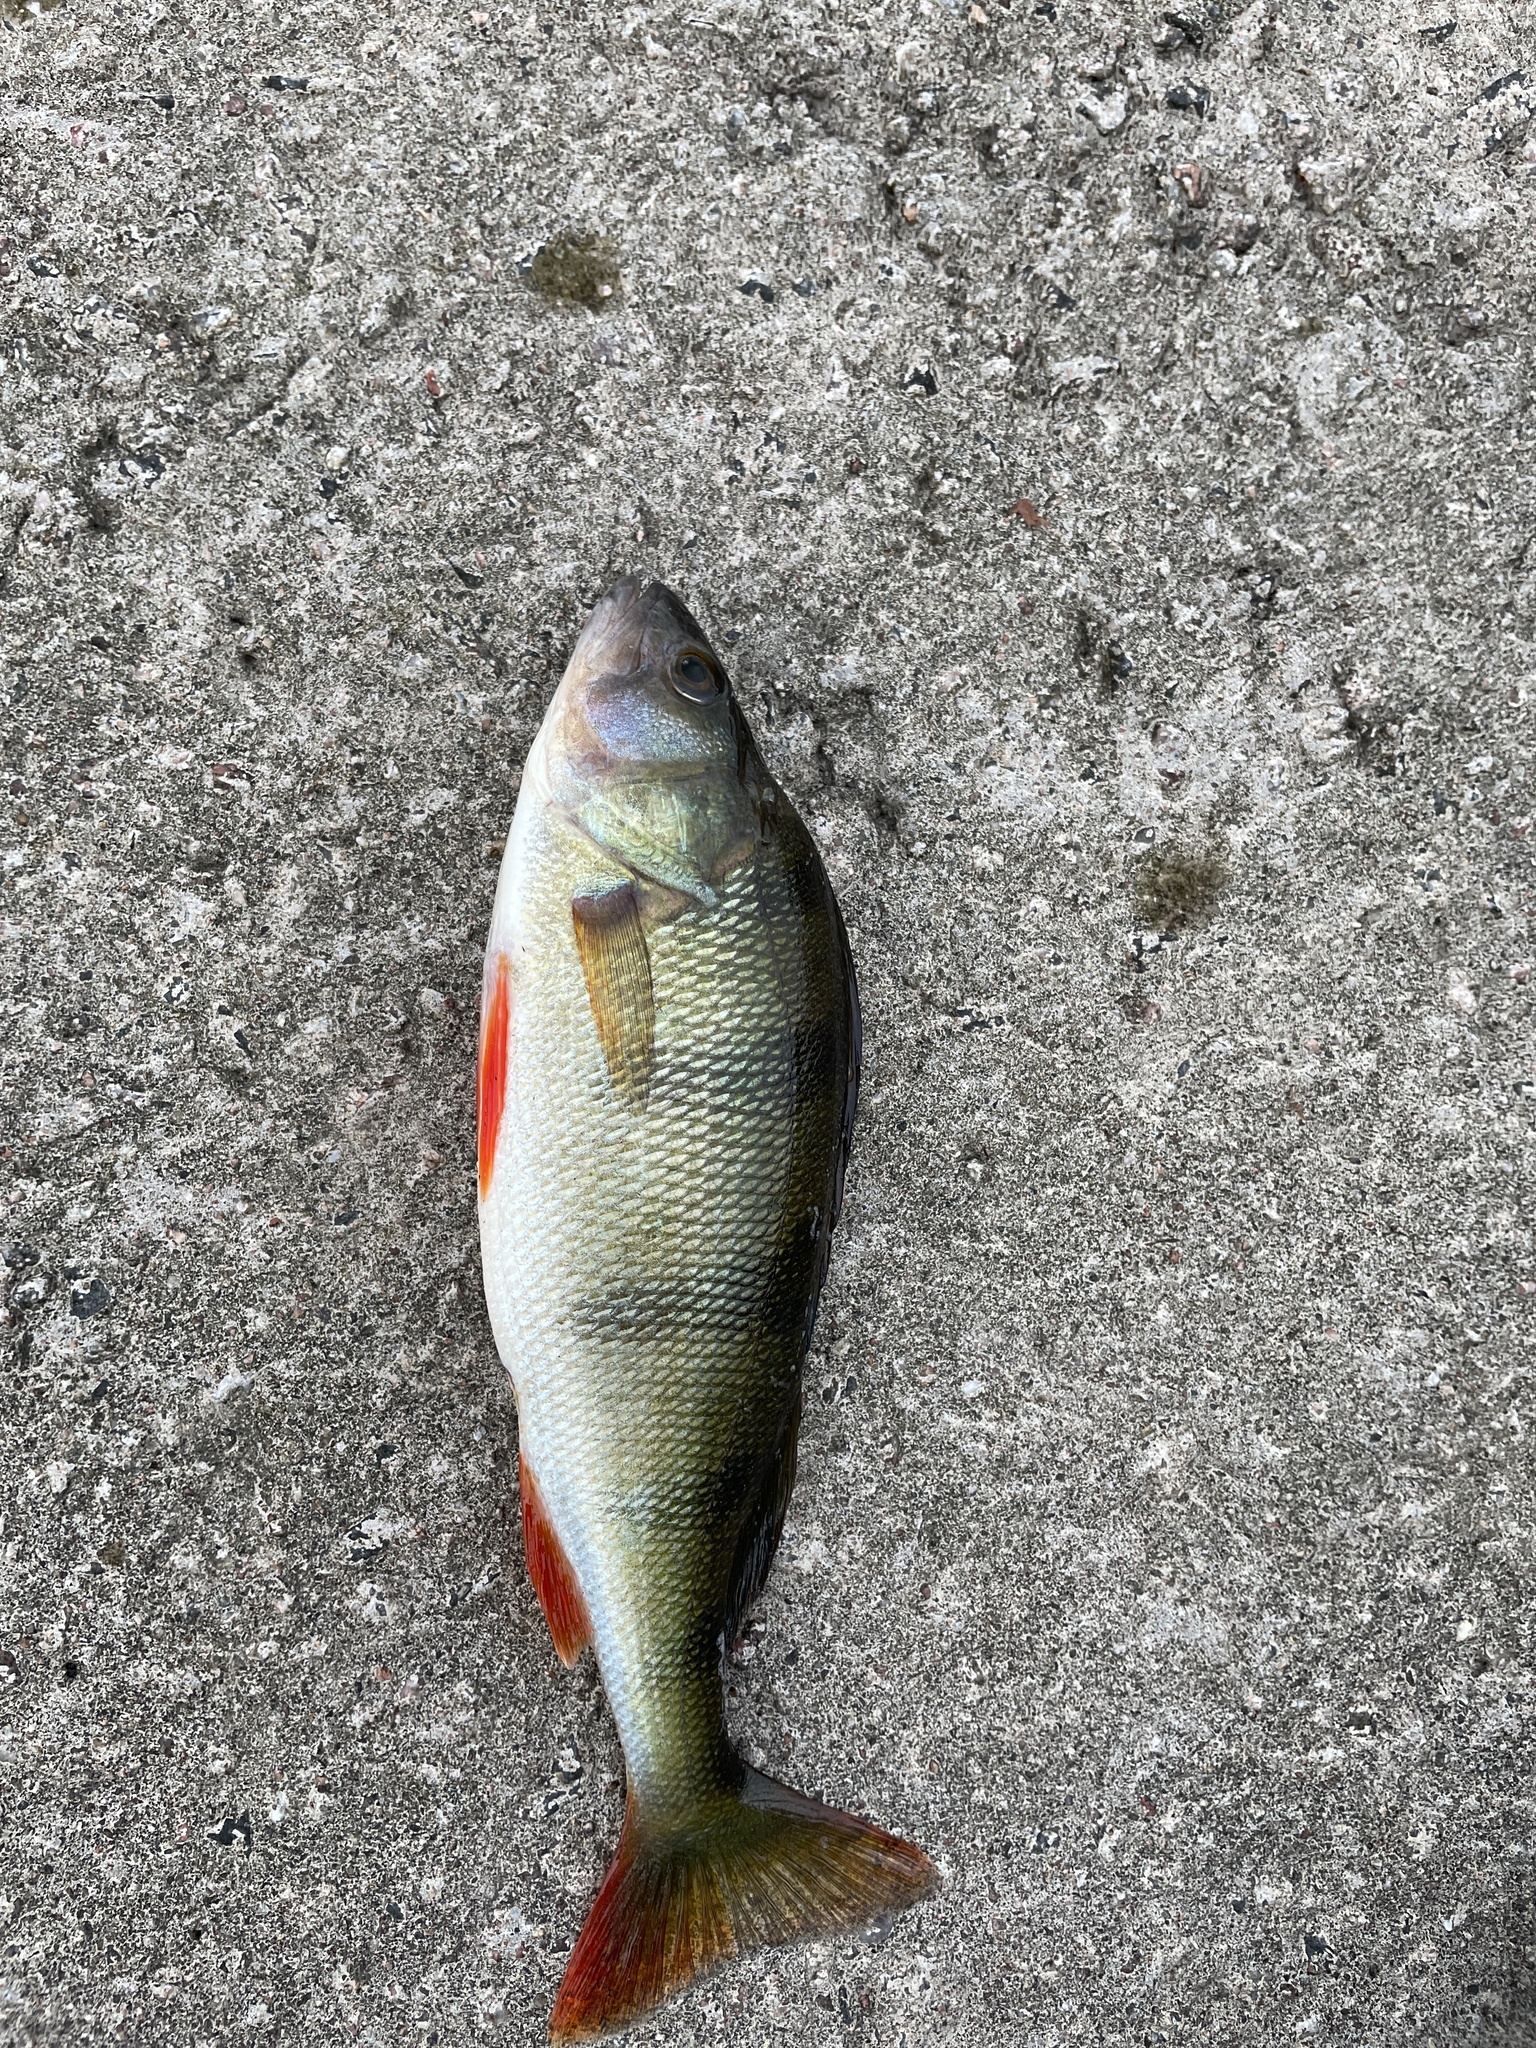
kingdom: Animalia
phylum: Chordata
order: Perciformes
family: Percidae
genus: Perca
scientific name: Perca fluviatilis
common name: Perch
